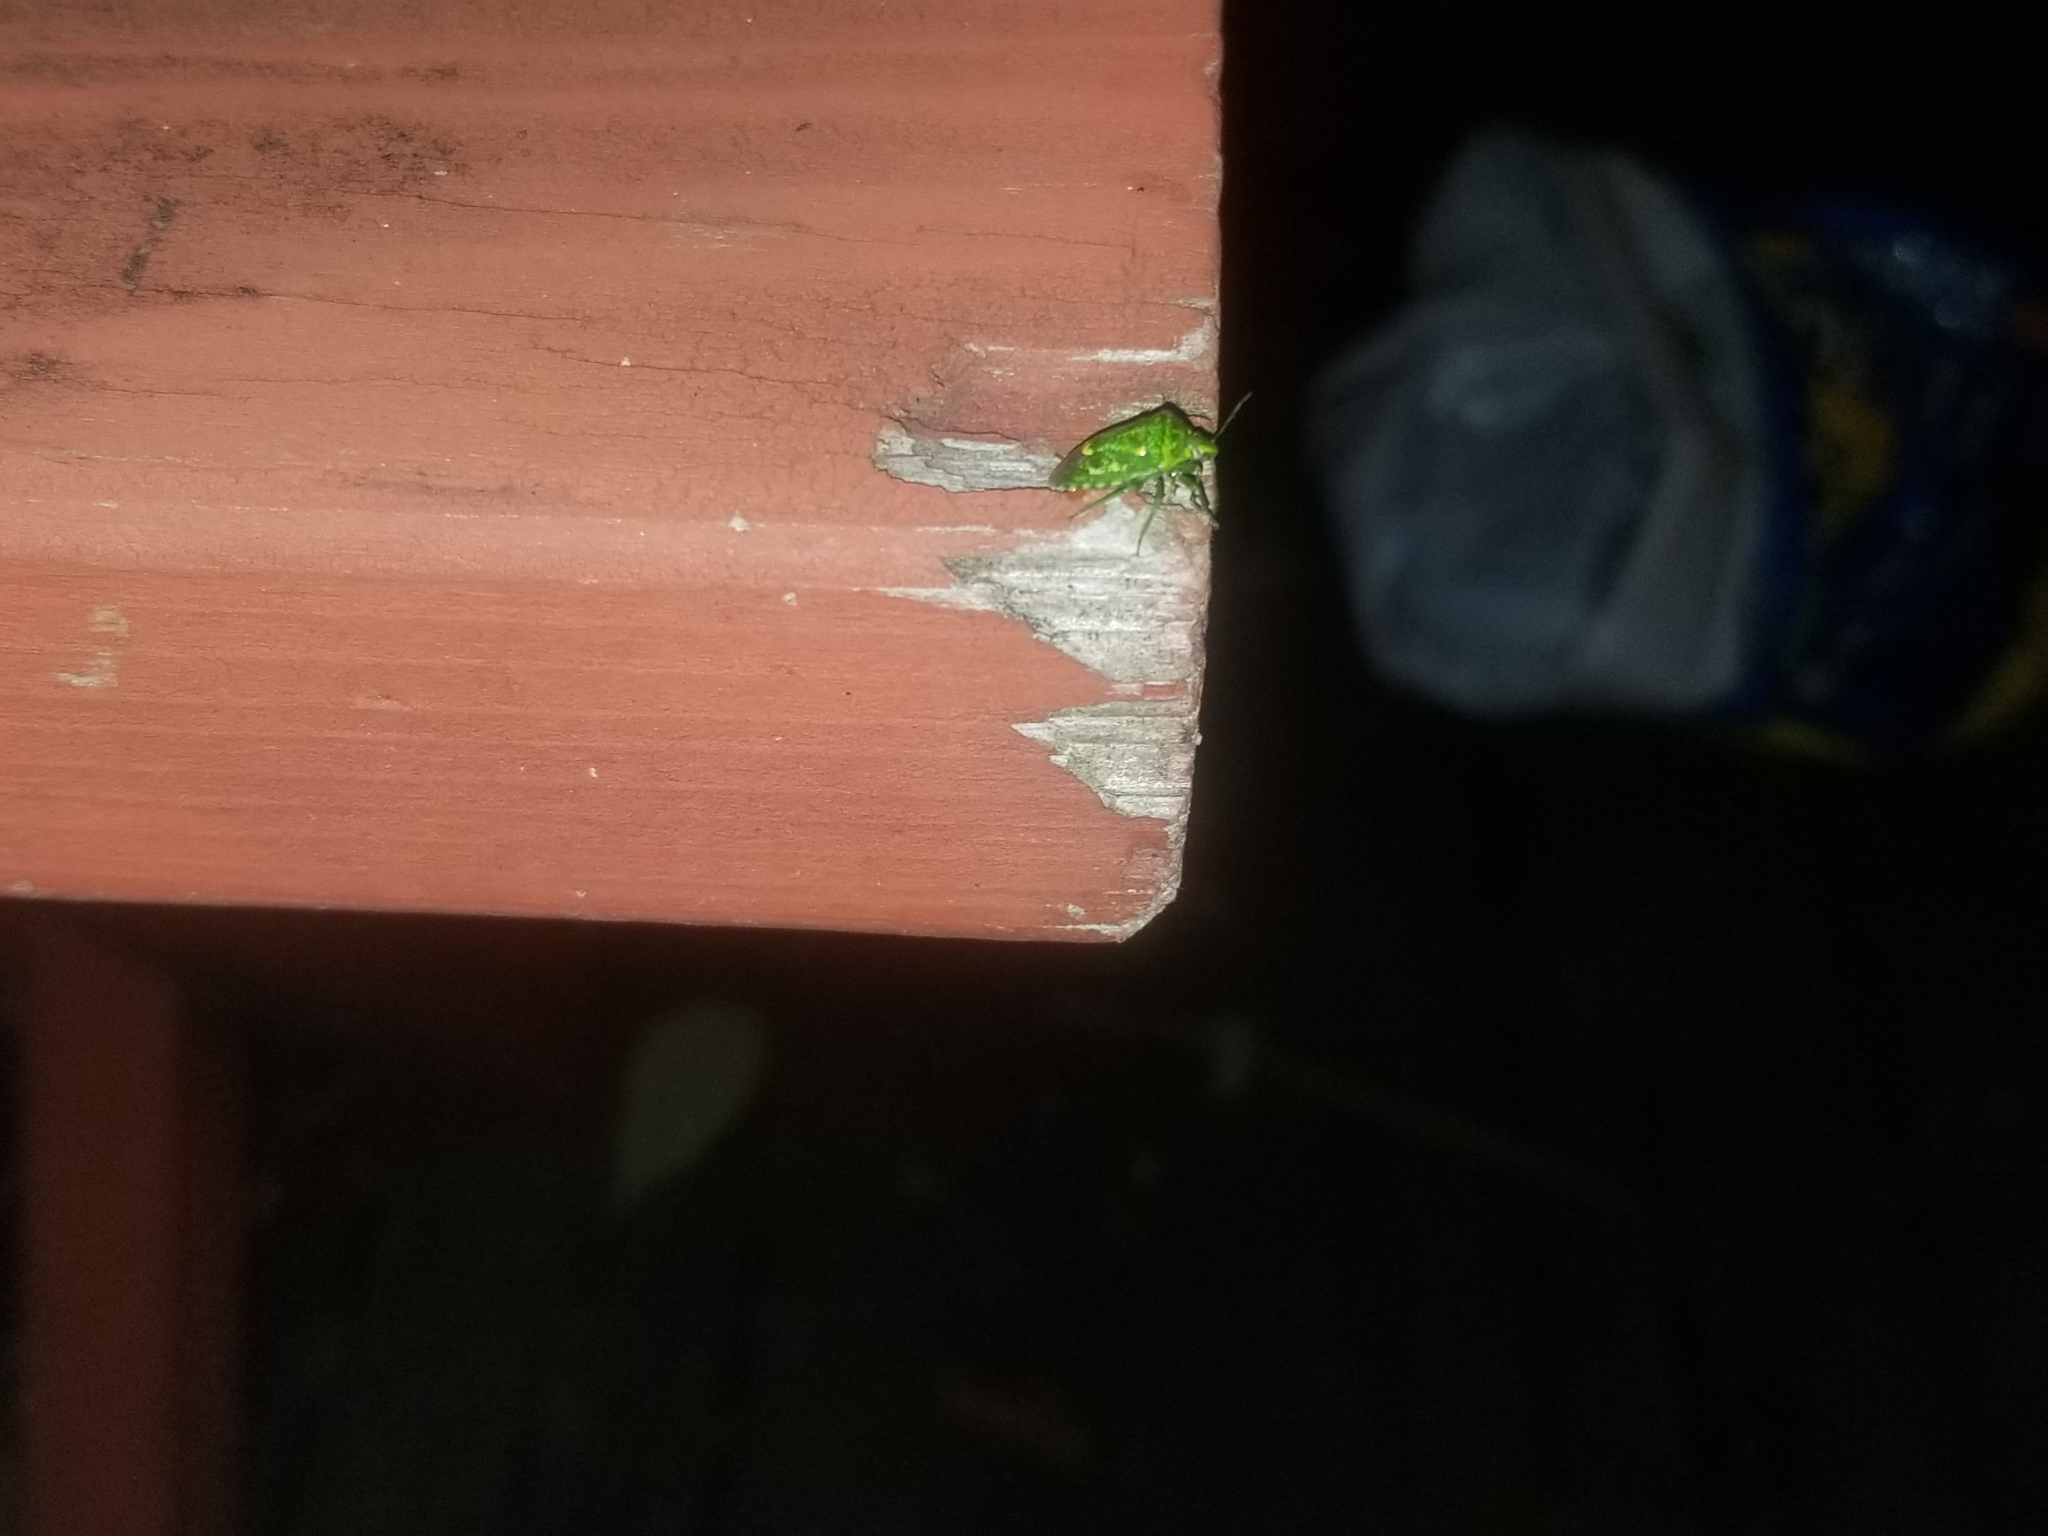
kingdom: Animalia
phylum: Arthropoda
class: Insecta
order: Hemiptera
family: Pentatomidae
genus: Banasa
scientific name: Banasa euchlora
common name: Cedar berry bug
